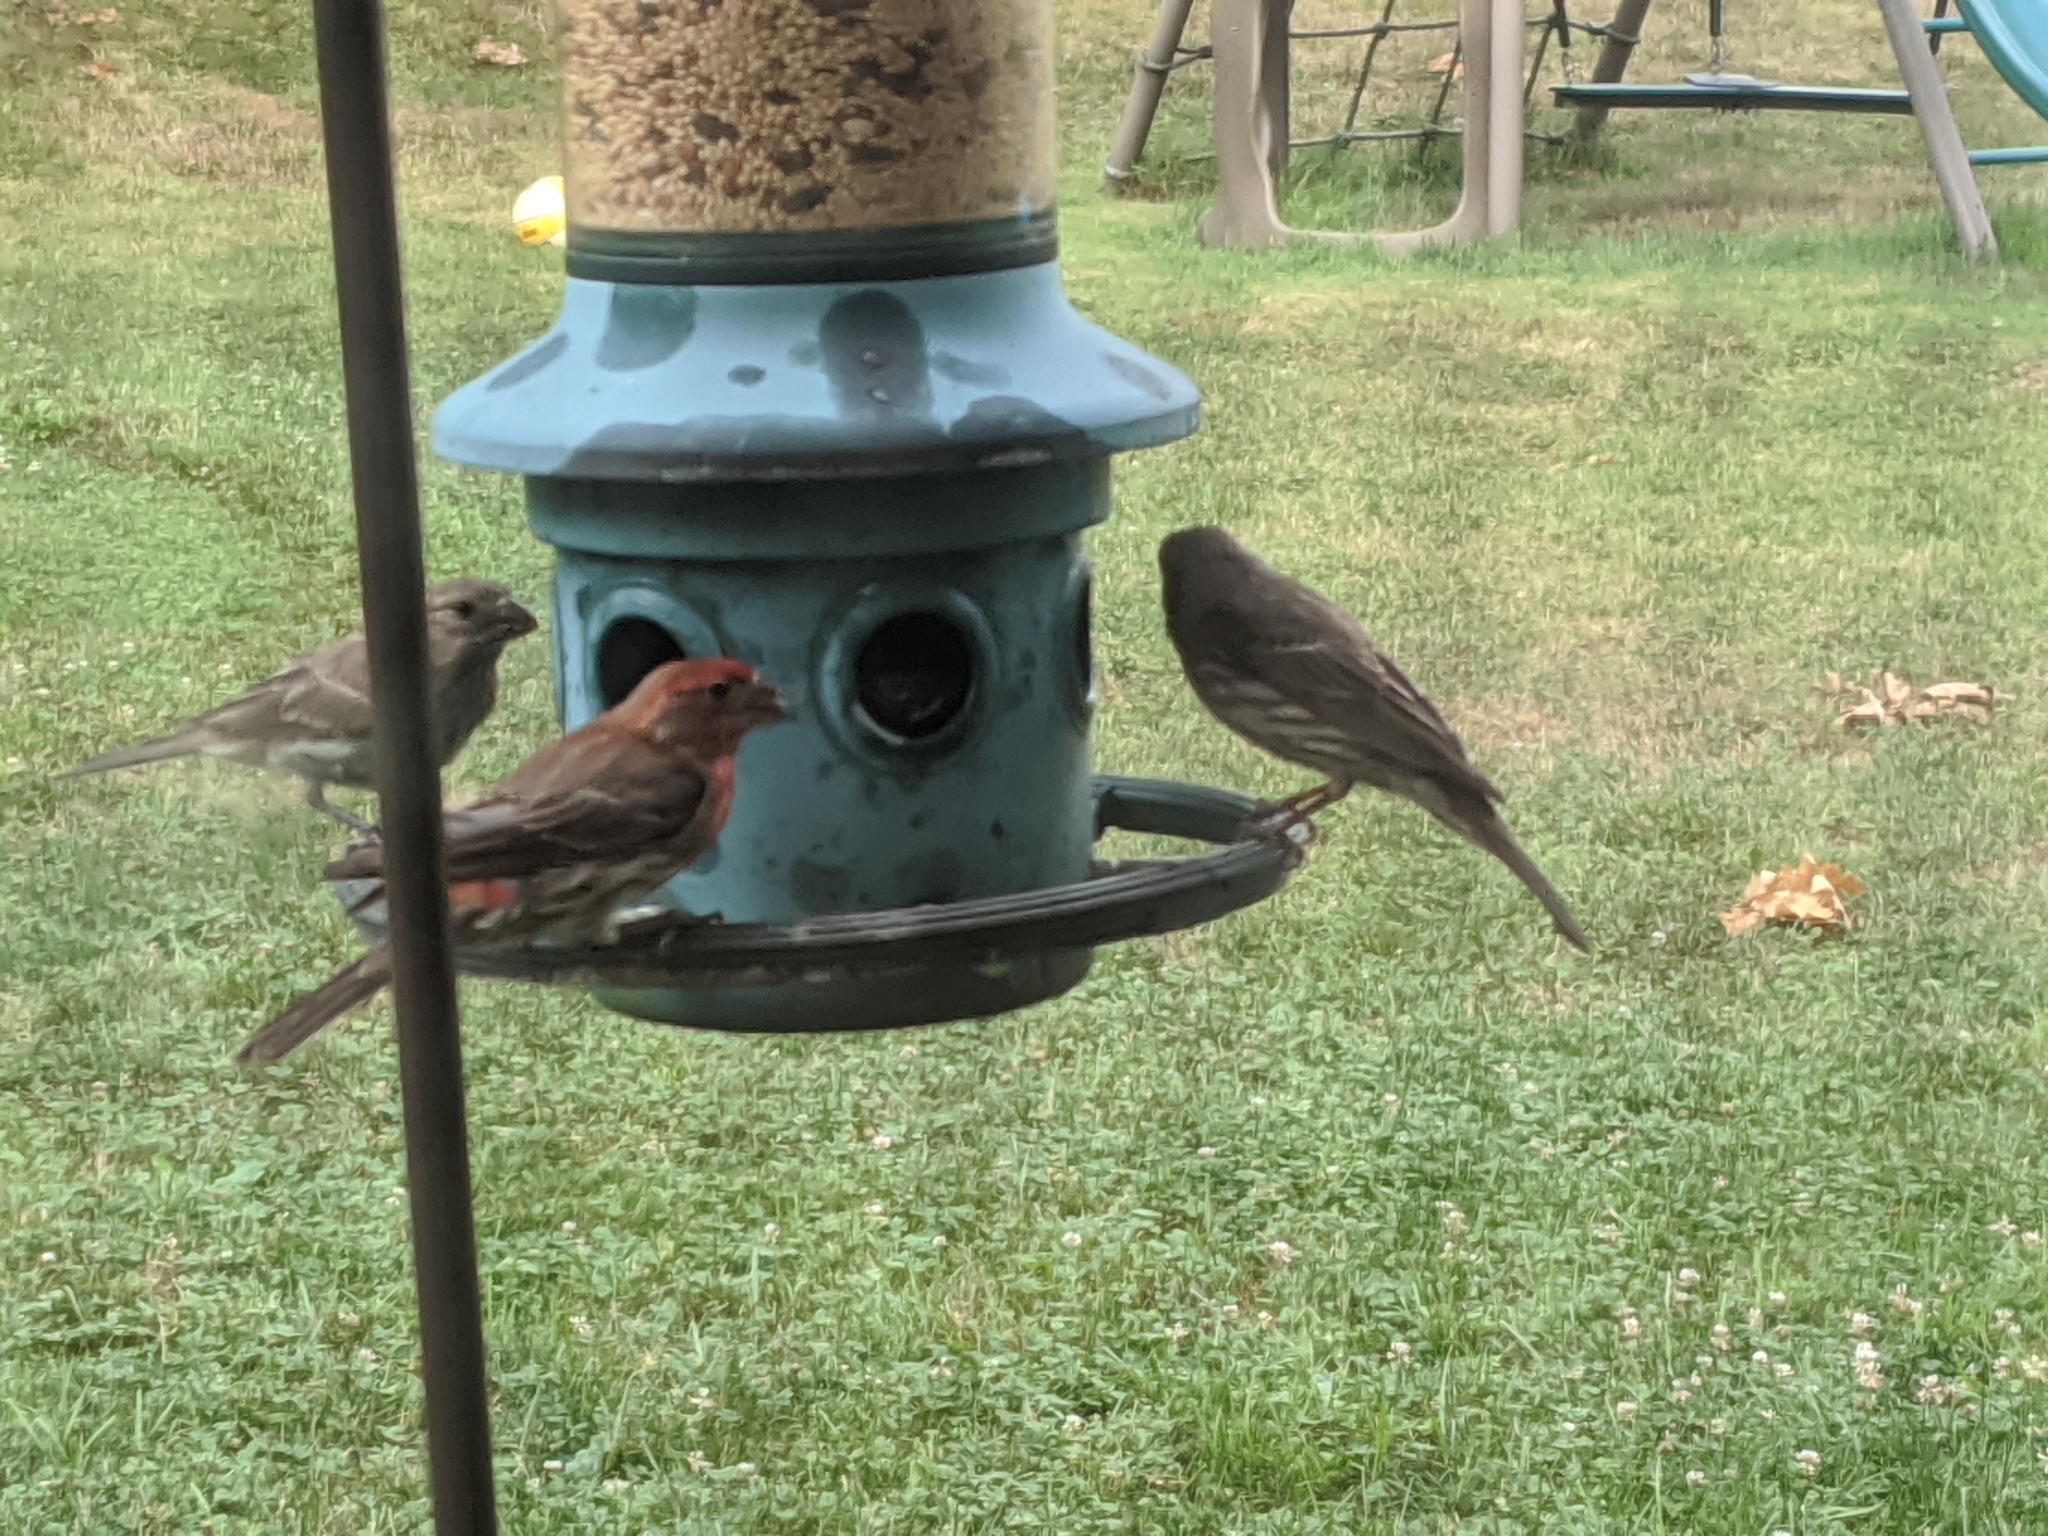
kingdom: Animalia
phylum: Chordata
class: Aves
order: Passeriformes
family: Fringillidae
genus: Haemorhous
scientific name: Haemorhous mexicanus
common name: House finch
